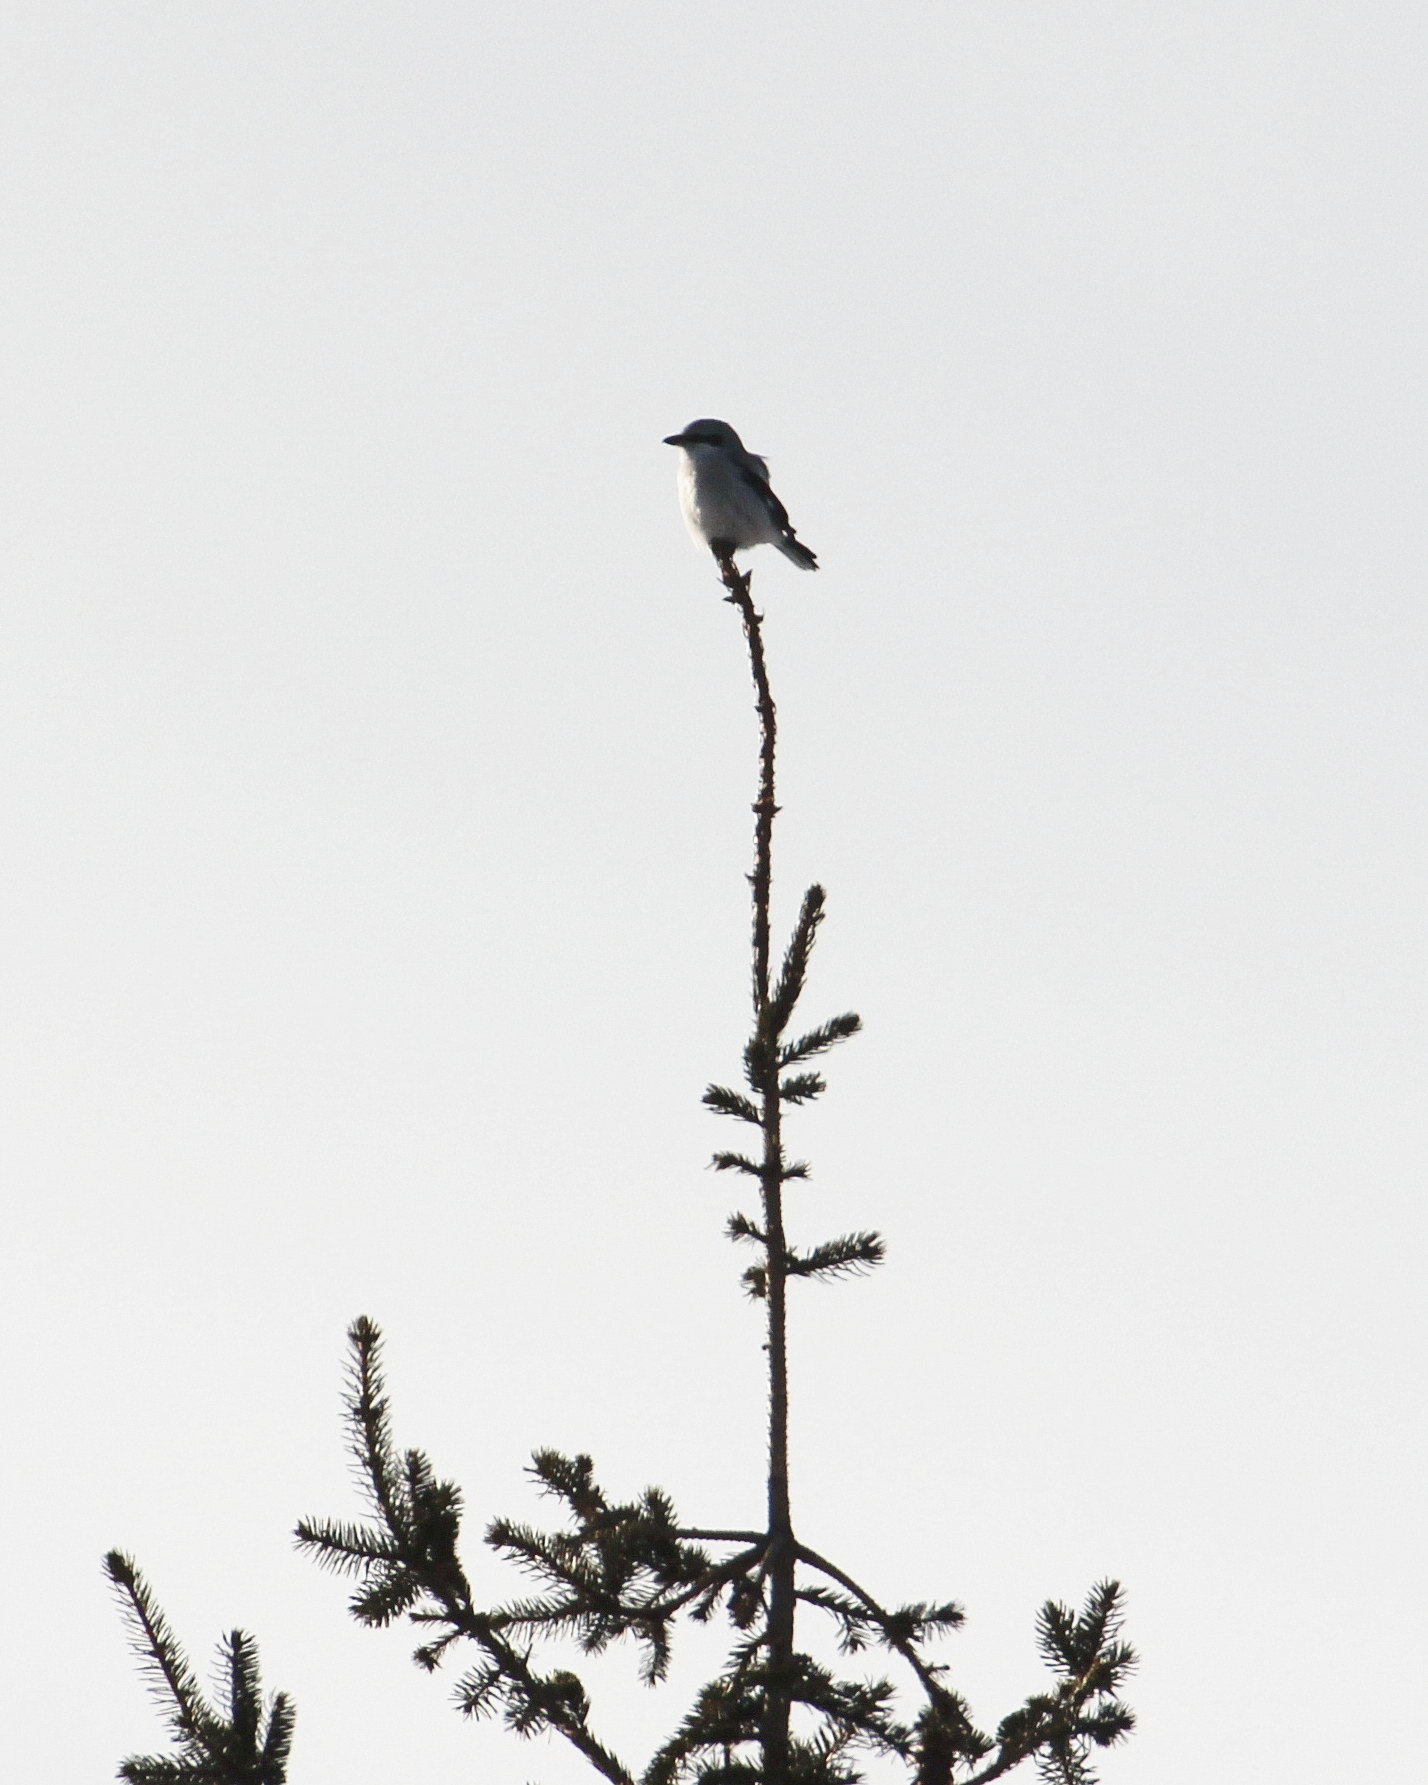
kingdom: Animalia
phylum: Chordata
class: Aves
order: Passeriformes
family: Laniidae
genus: Lanius
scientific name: Lanius excubitor
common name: Great grey shrike
